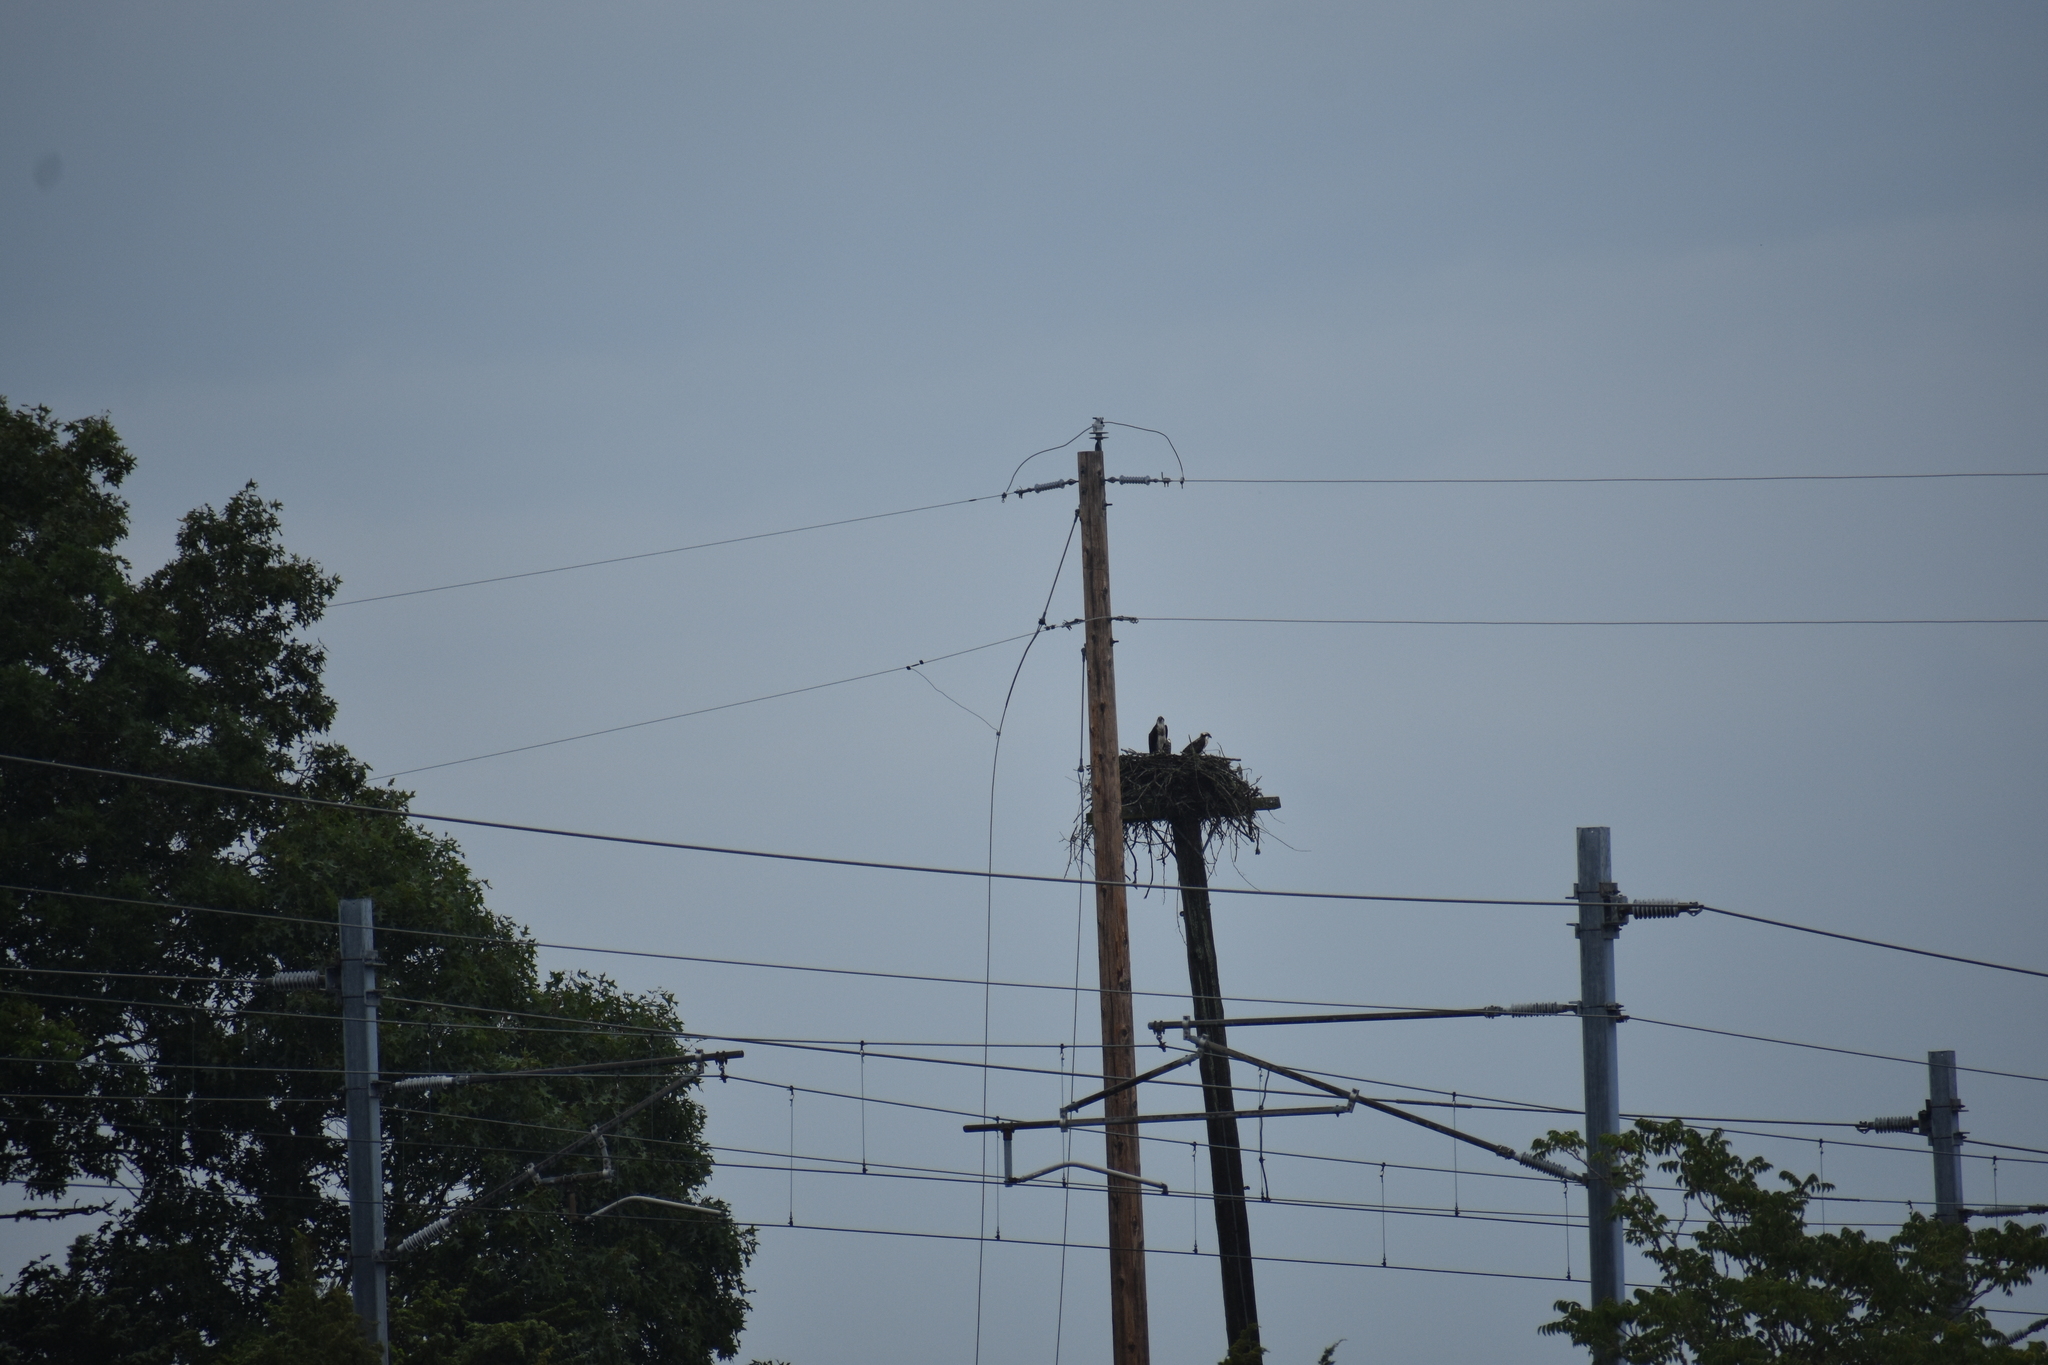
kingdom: Animalia
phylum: Chordata
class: Aves
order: Accipitriformes
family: Pandionidae
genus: Pandion
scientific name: Pandion haliaetus
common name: Osprey
